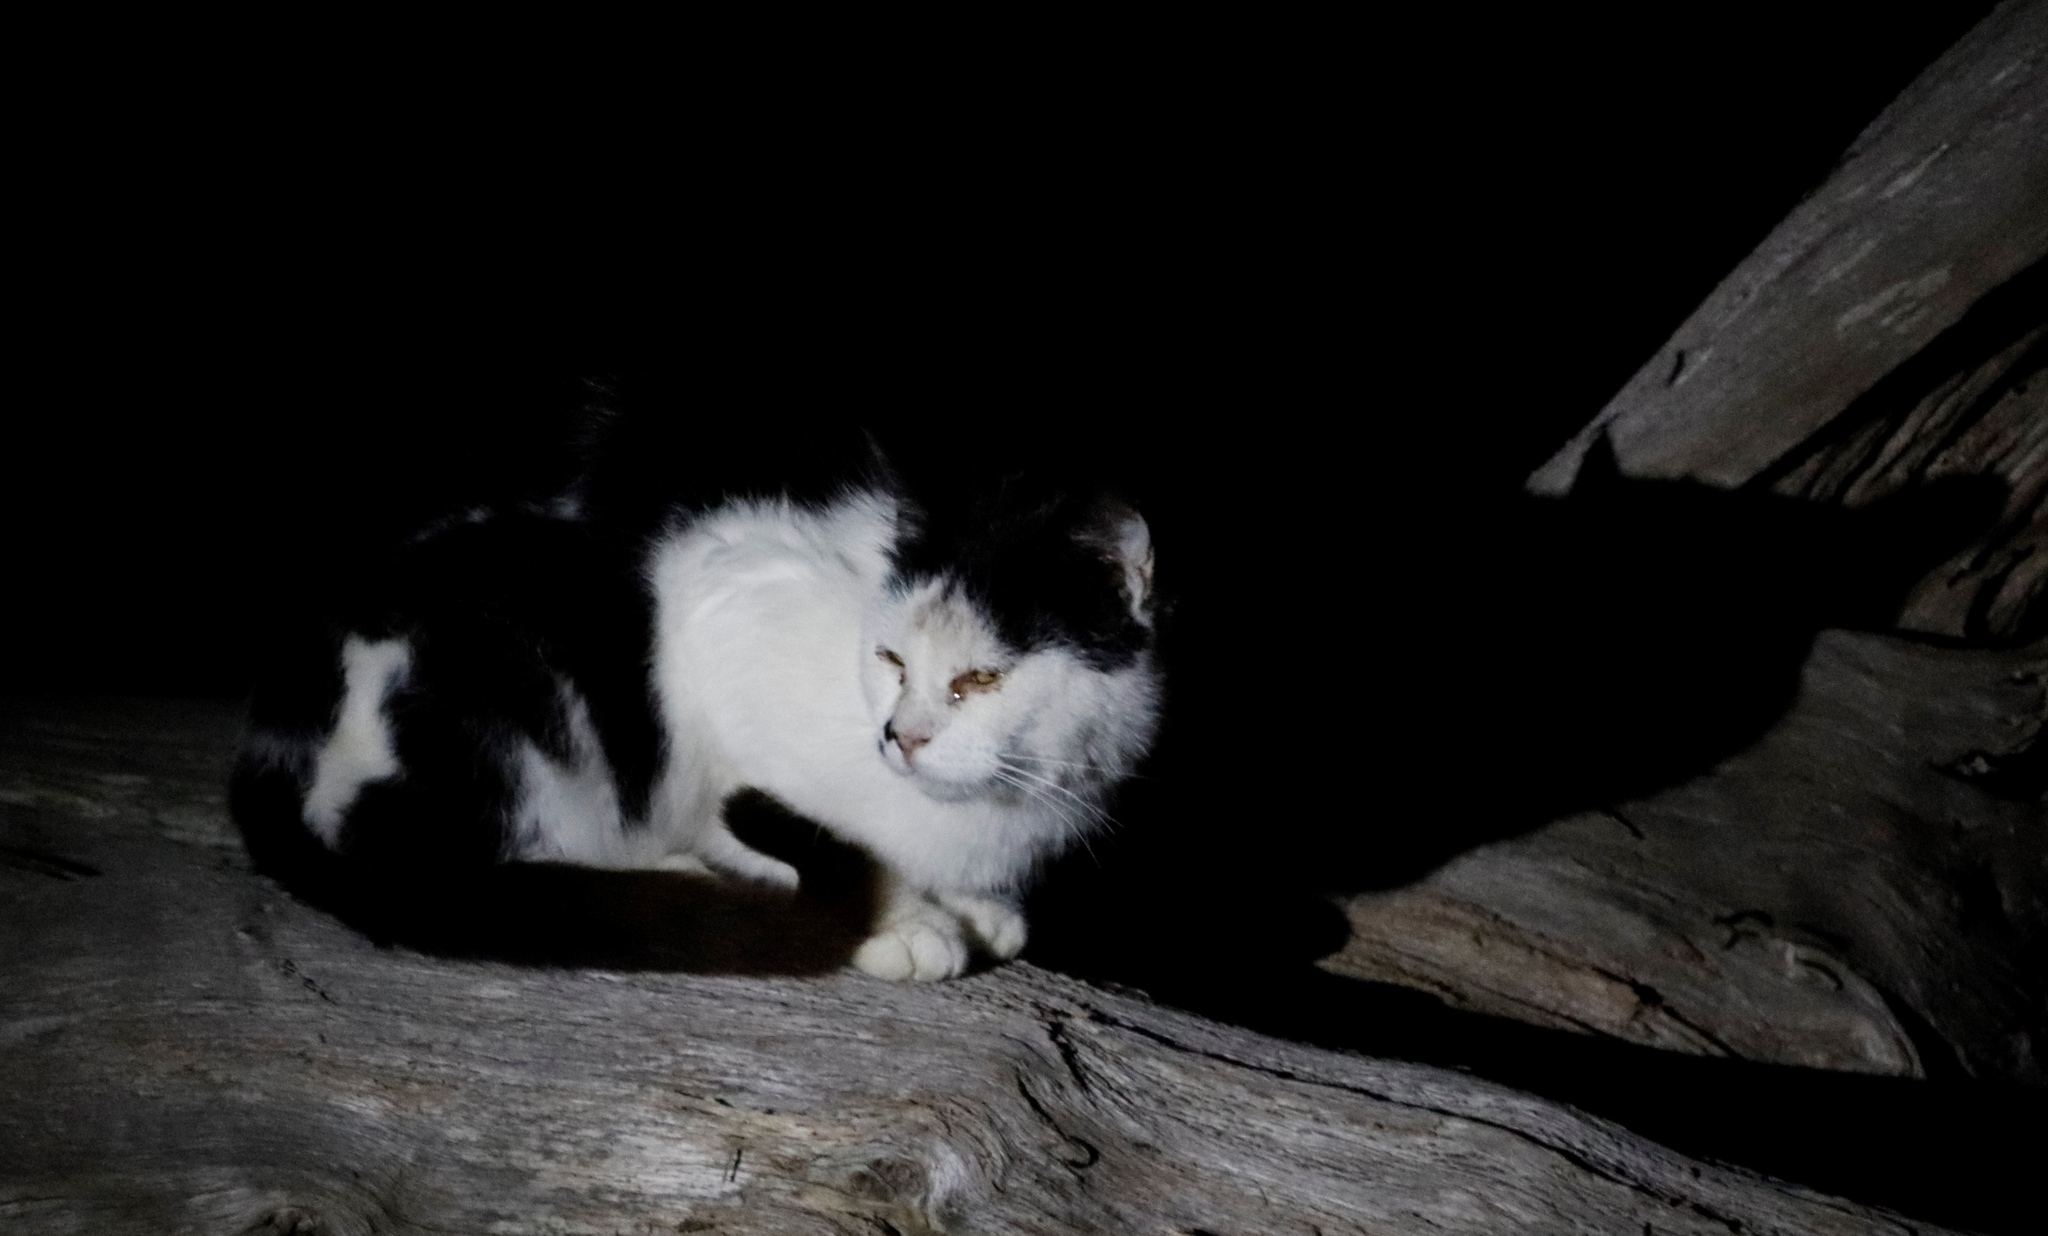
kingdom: Animalia
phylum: Chordata
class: Mammalia
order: Carnivora
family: Felidae
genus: Felis
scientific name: Felis catus
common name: Domestic cat
